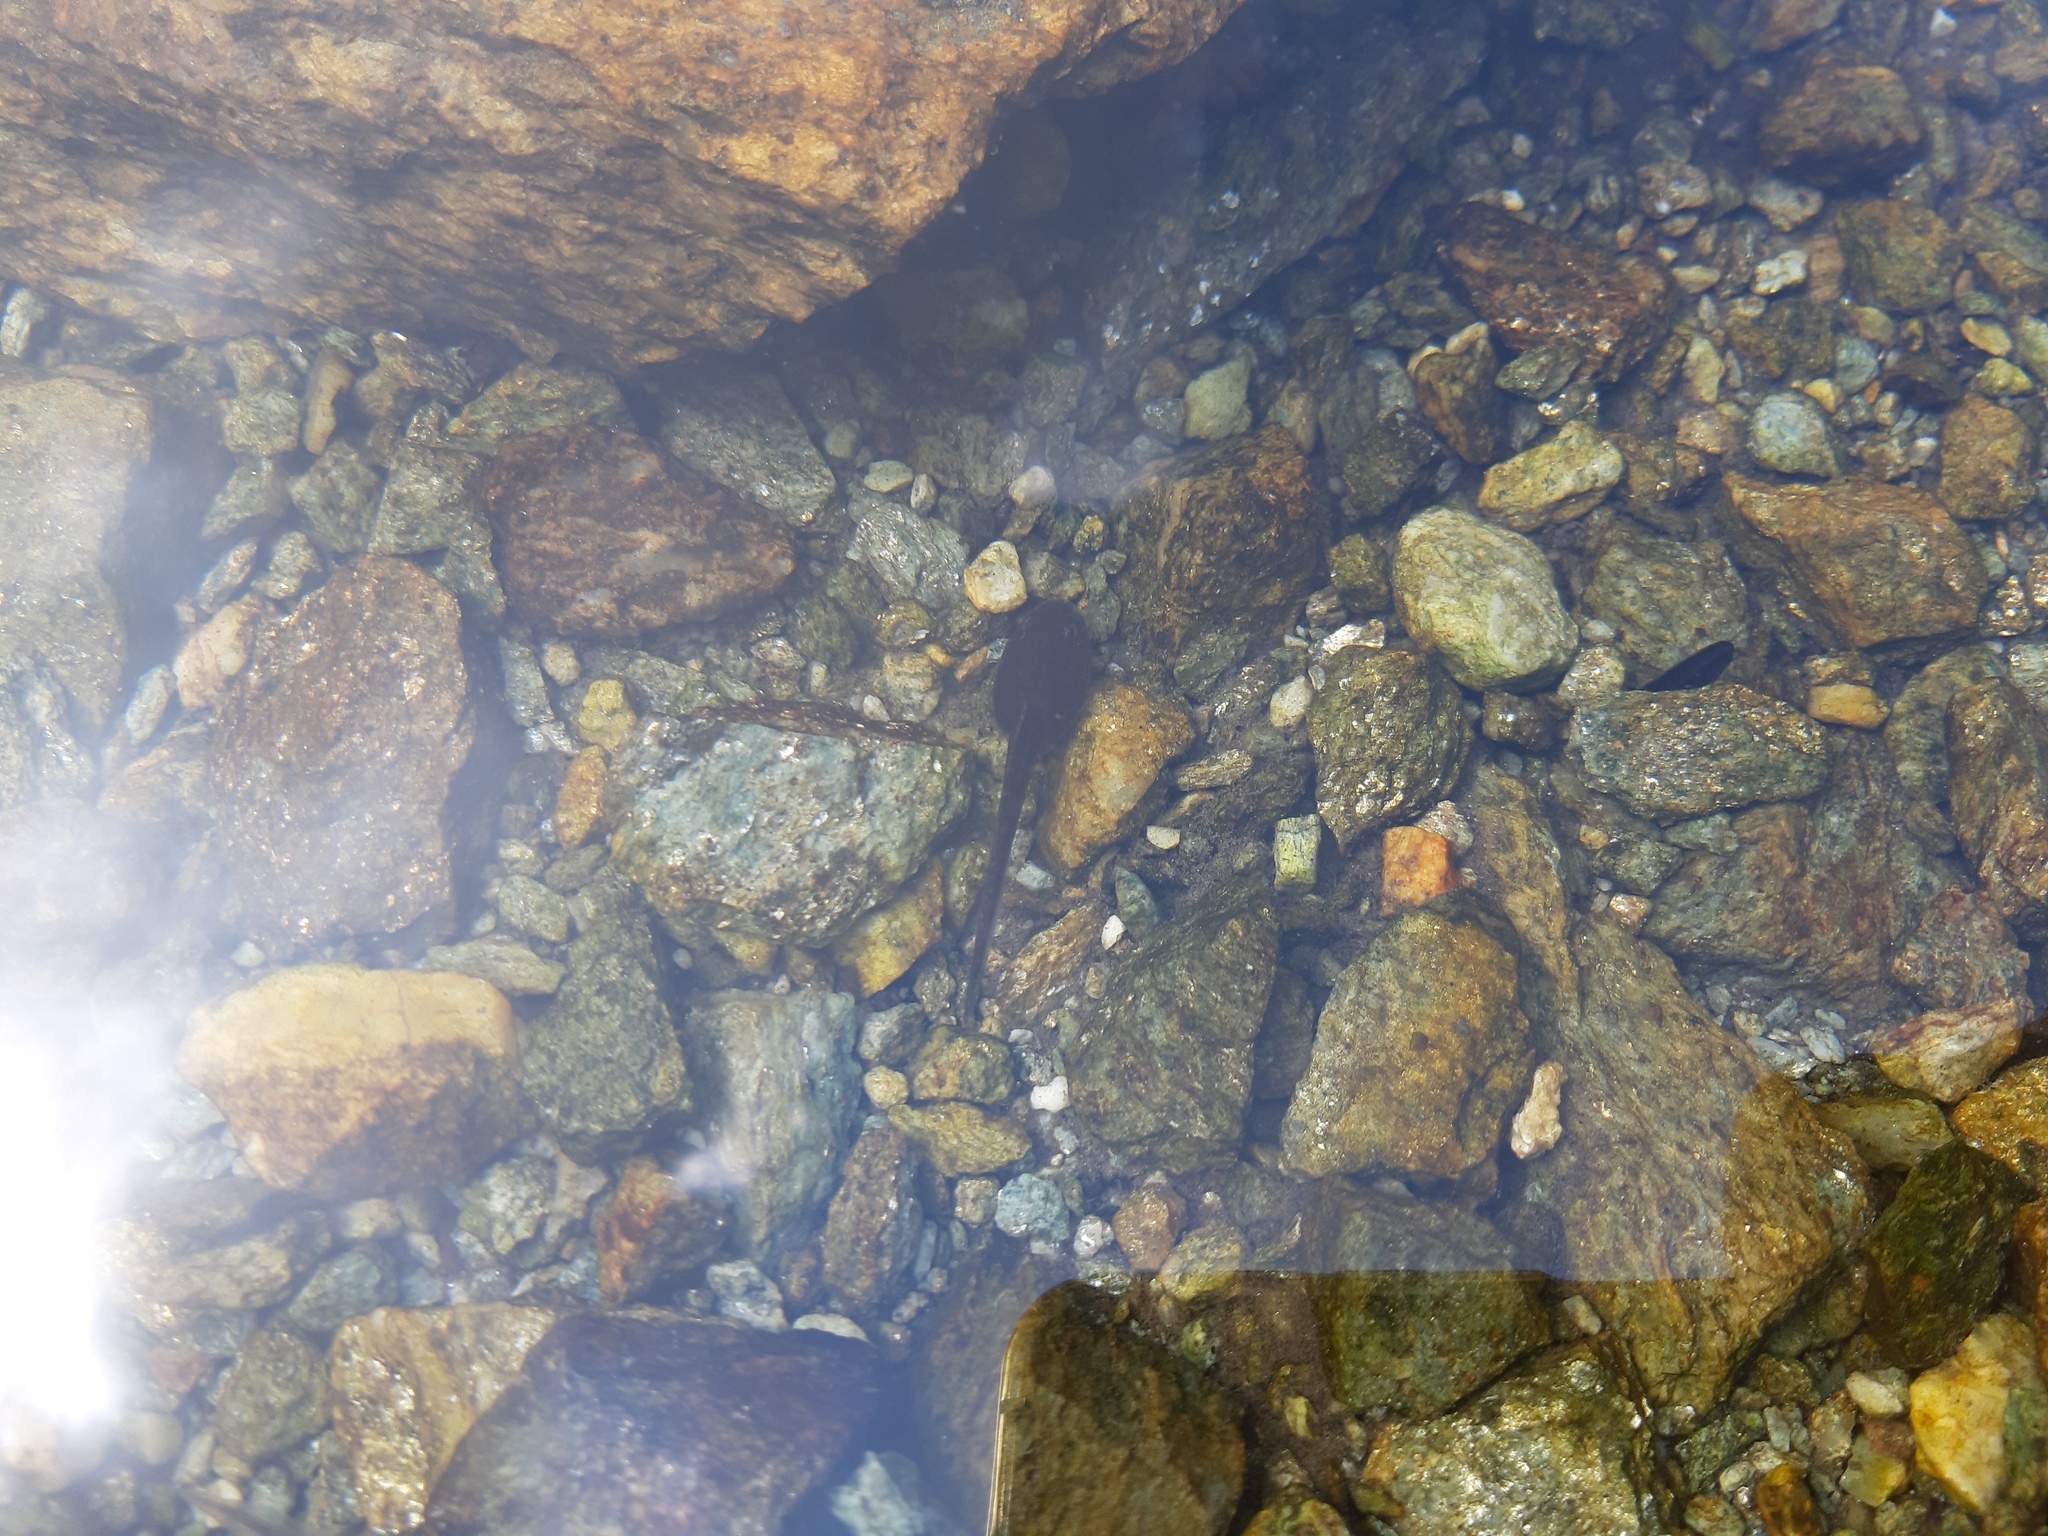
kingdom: Animalia
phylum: Chordata
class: Amphibia
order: Anura
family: Ranidae
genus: Rana
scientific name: Rana temporaria
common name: Common frog
